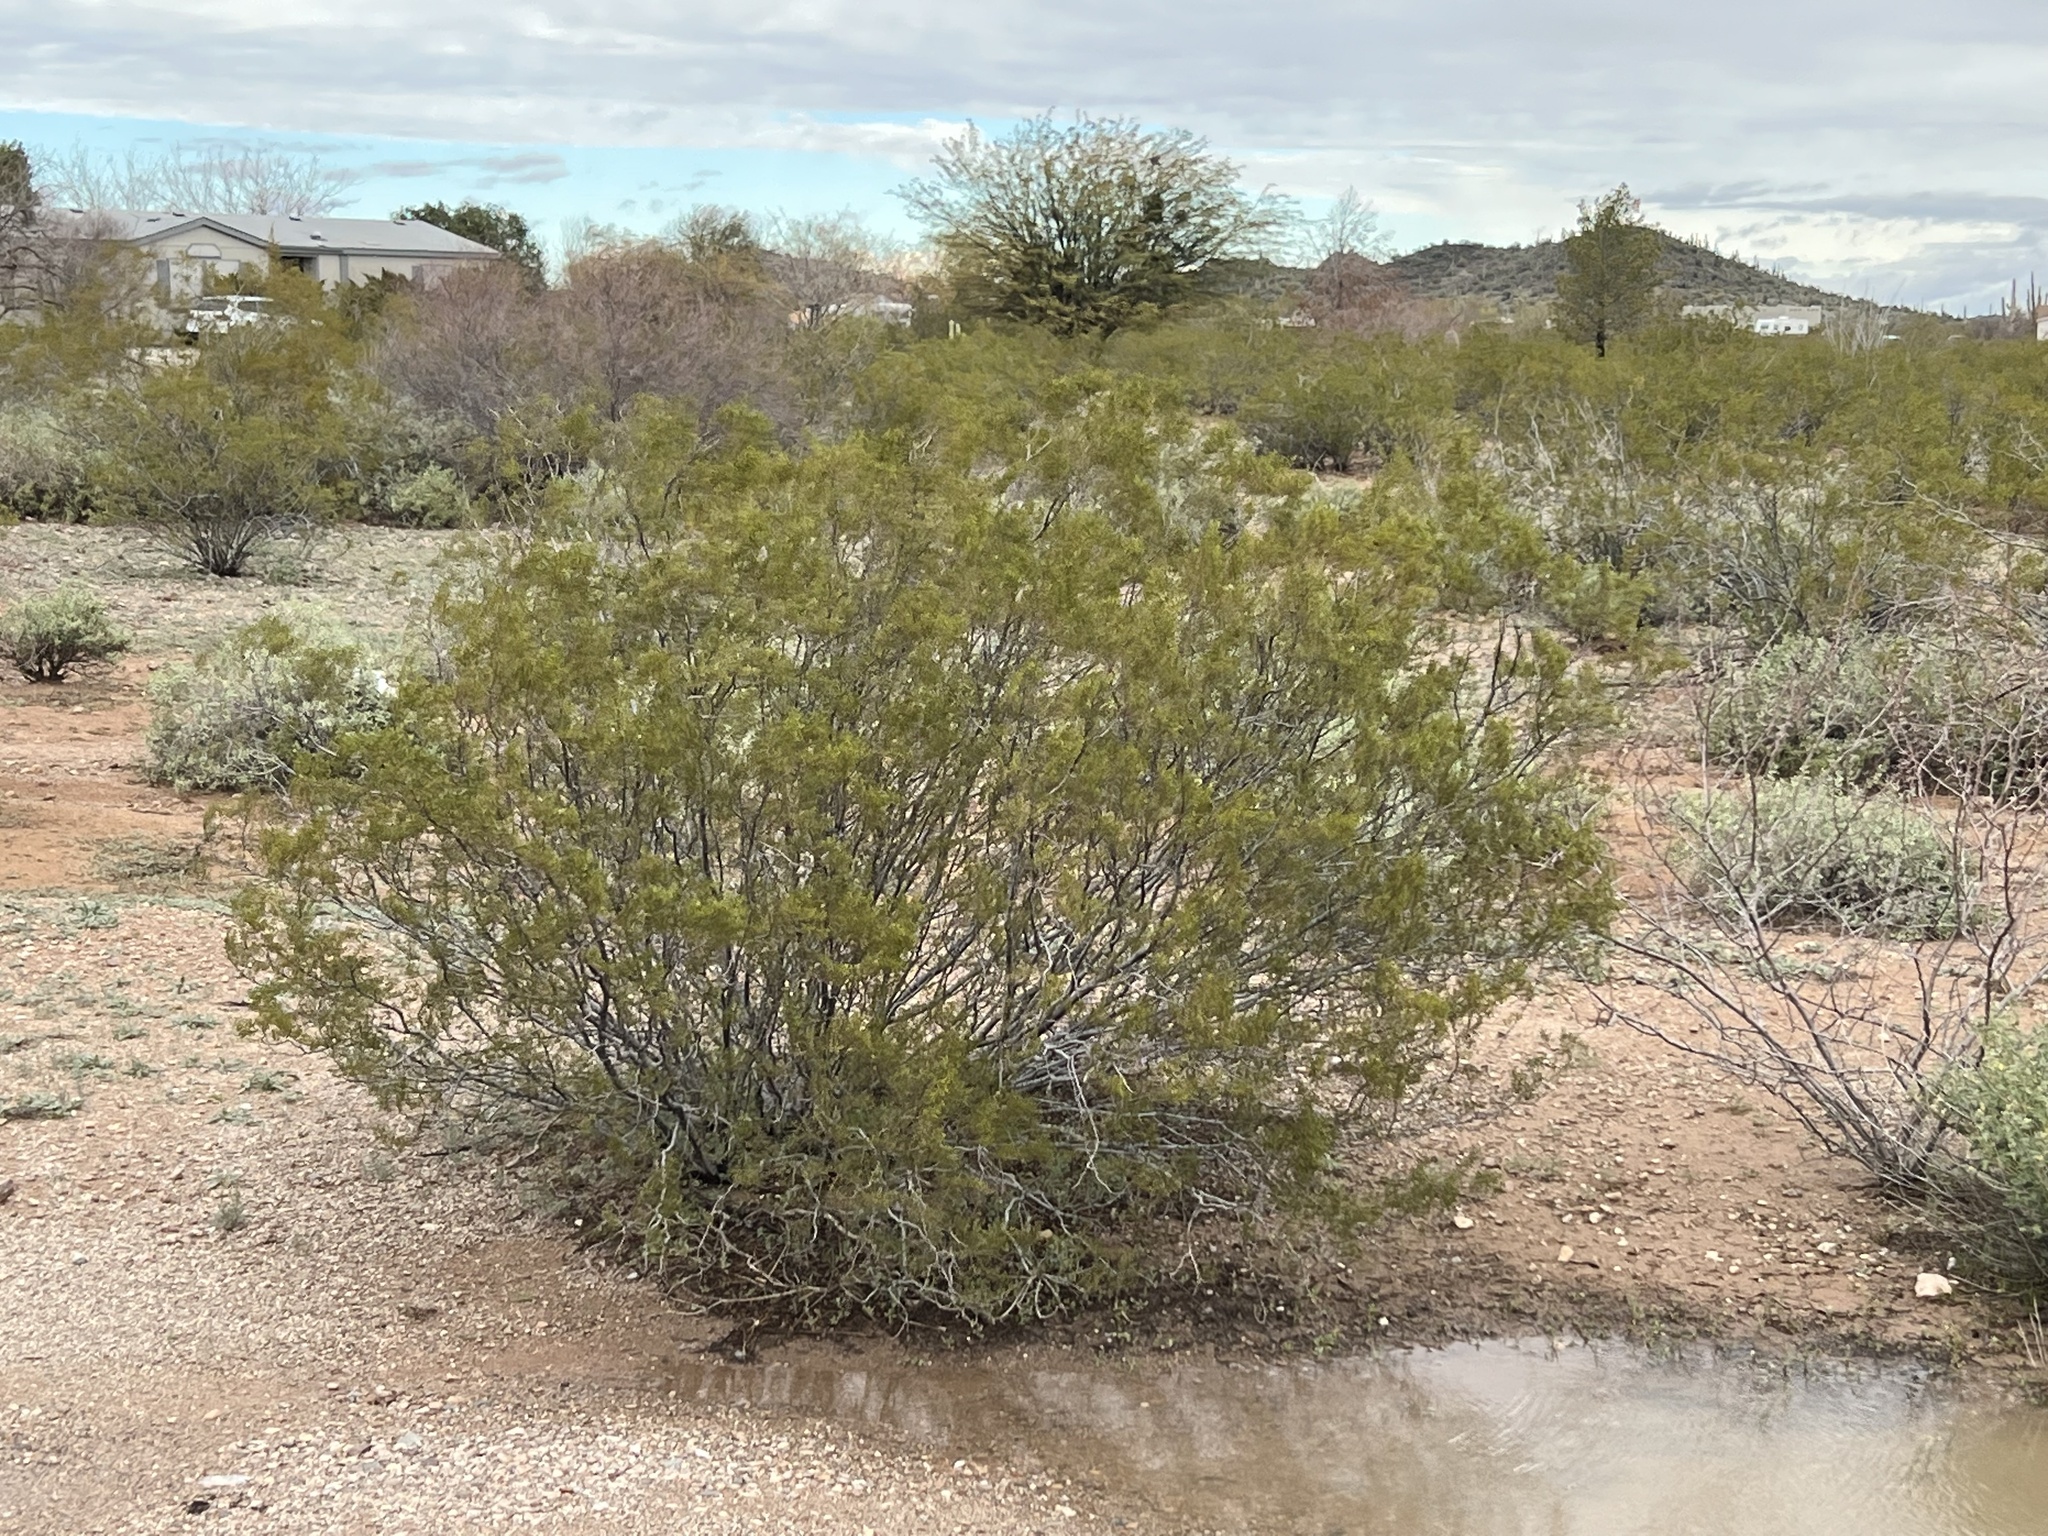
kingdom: Plantae
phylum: Tracheophyta
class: Magnoliopsida
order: Zygophyllales
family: Zygophyllaceae
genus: Larrea
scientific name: Larrea tridentata
